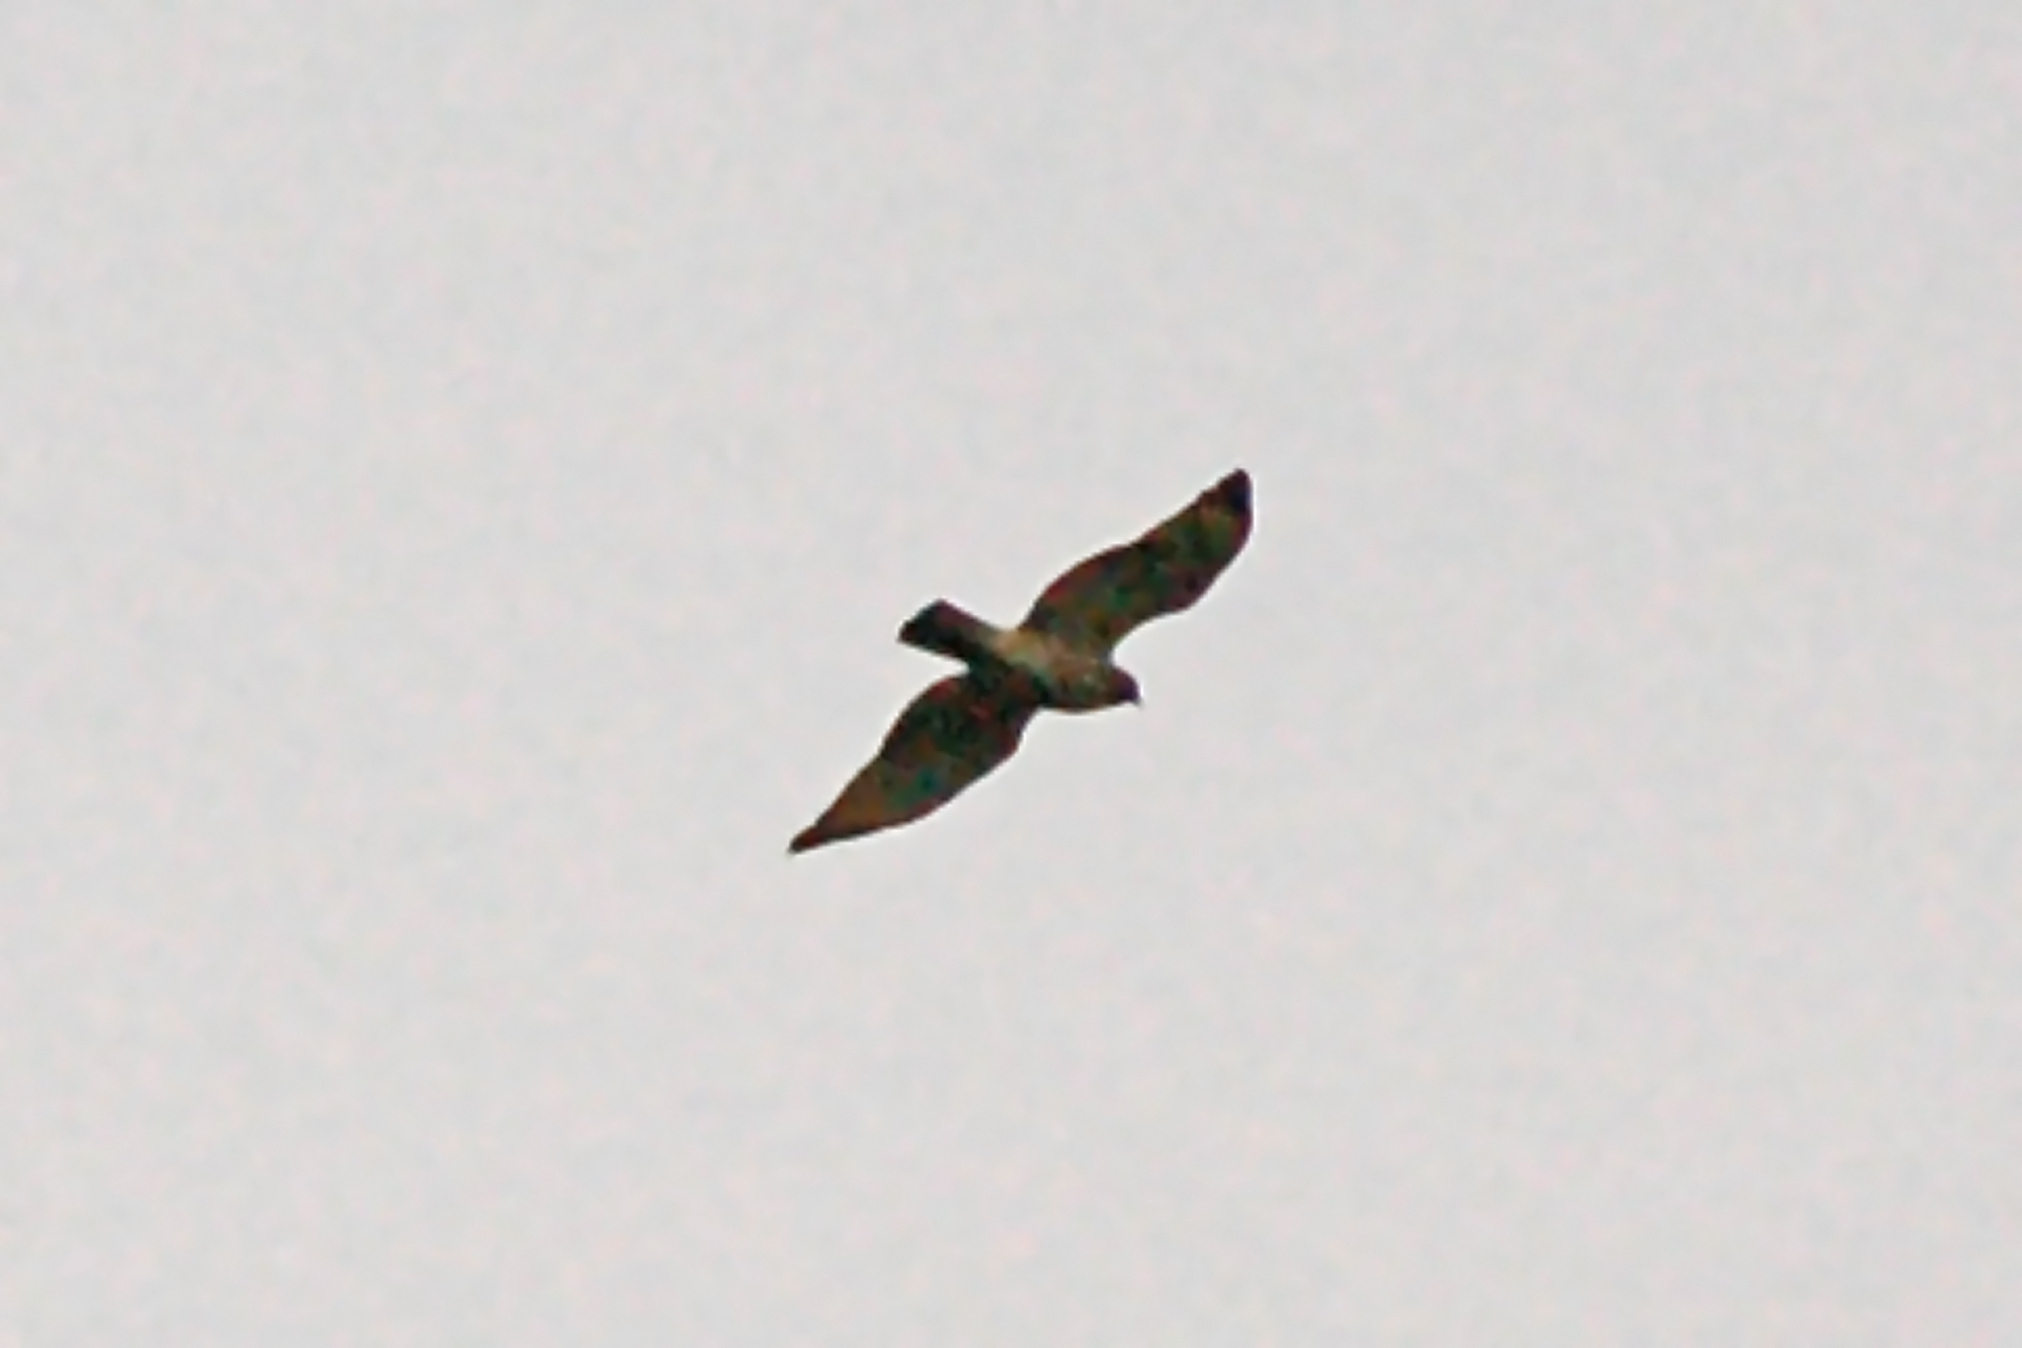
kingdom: Animalia
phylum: Chordata
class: Aves
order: Accipitriformes
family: Accipitridae
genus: Buteo
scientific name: Buteo lineatus
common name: Red-shouldered hawk
